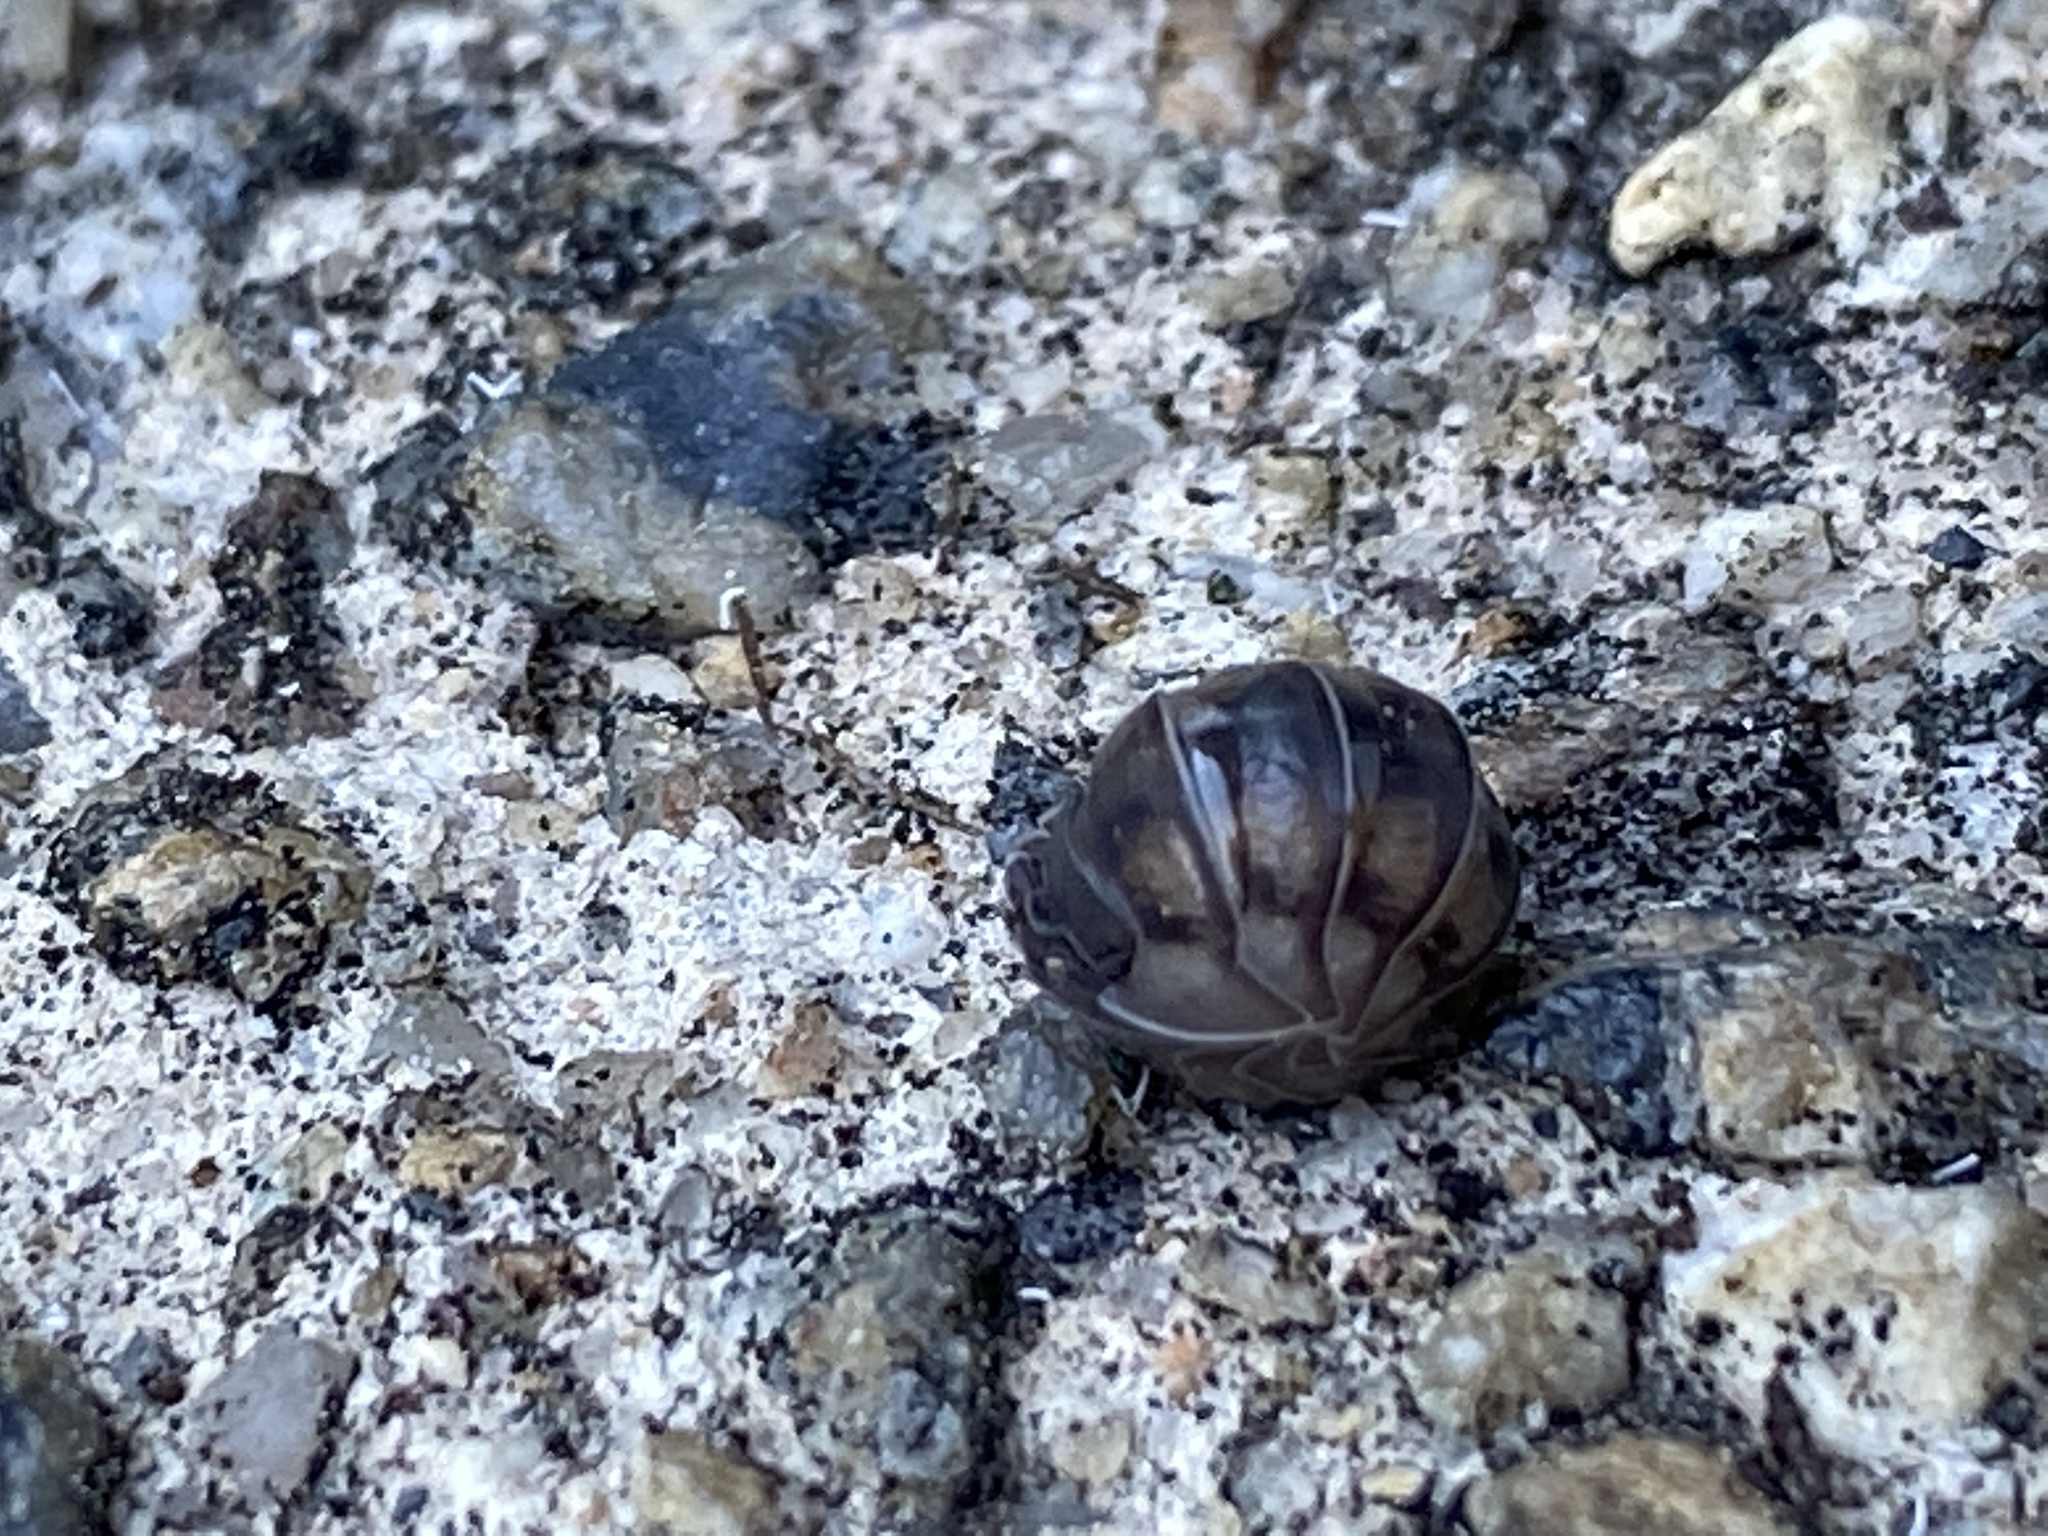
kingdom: Animalia
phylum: Arthropoda
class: Malacostraca
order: Isopoda
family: Armadillidiidae
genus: Armadillidium
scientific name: Armadillidium nasatum
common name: Isopod
